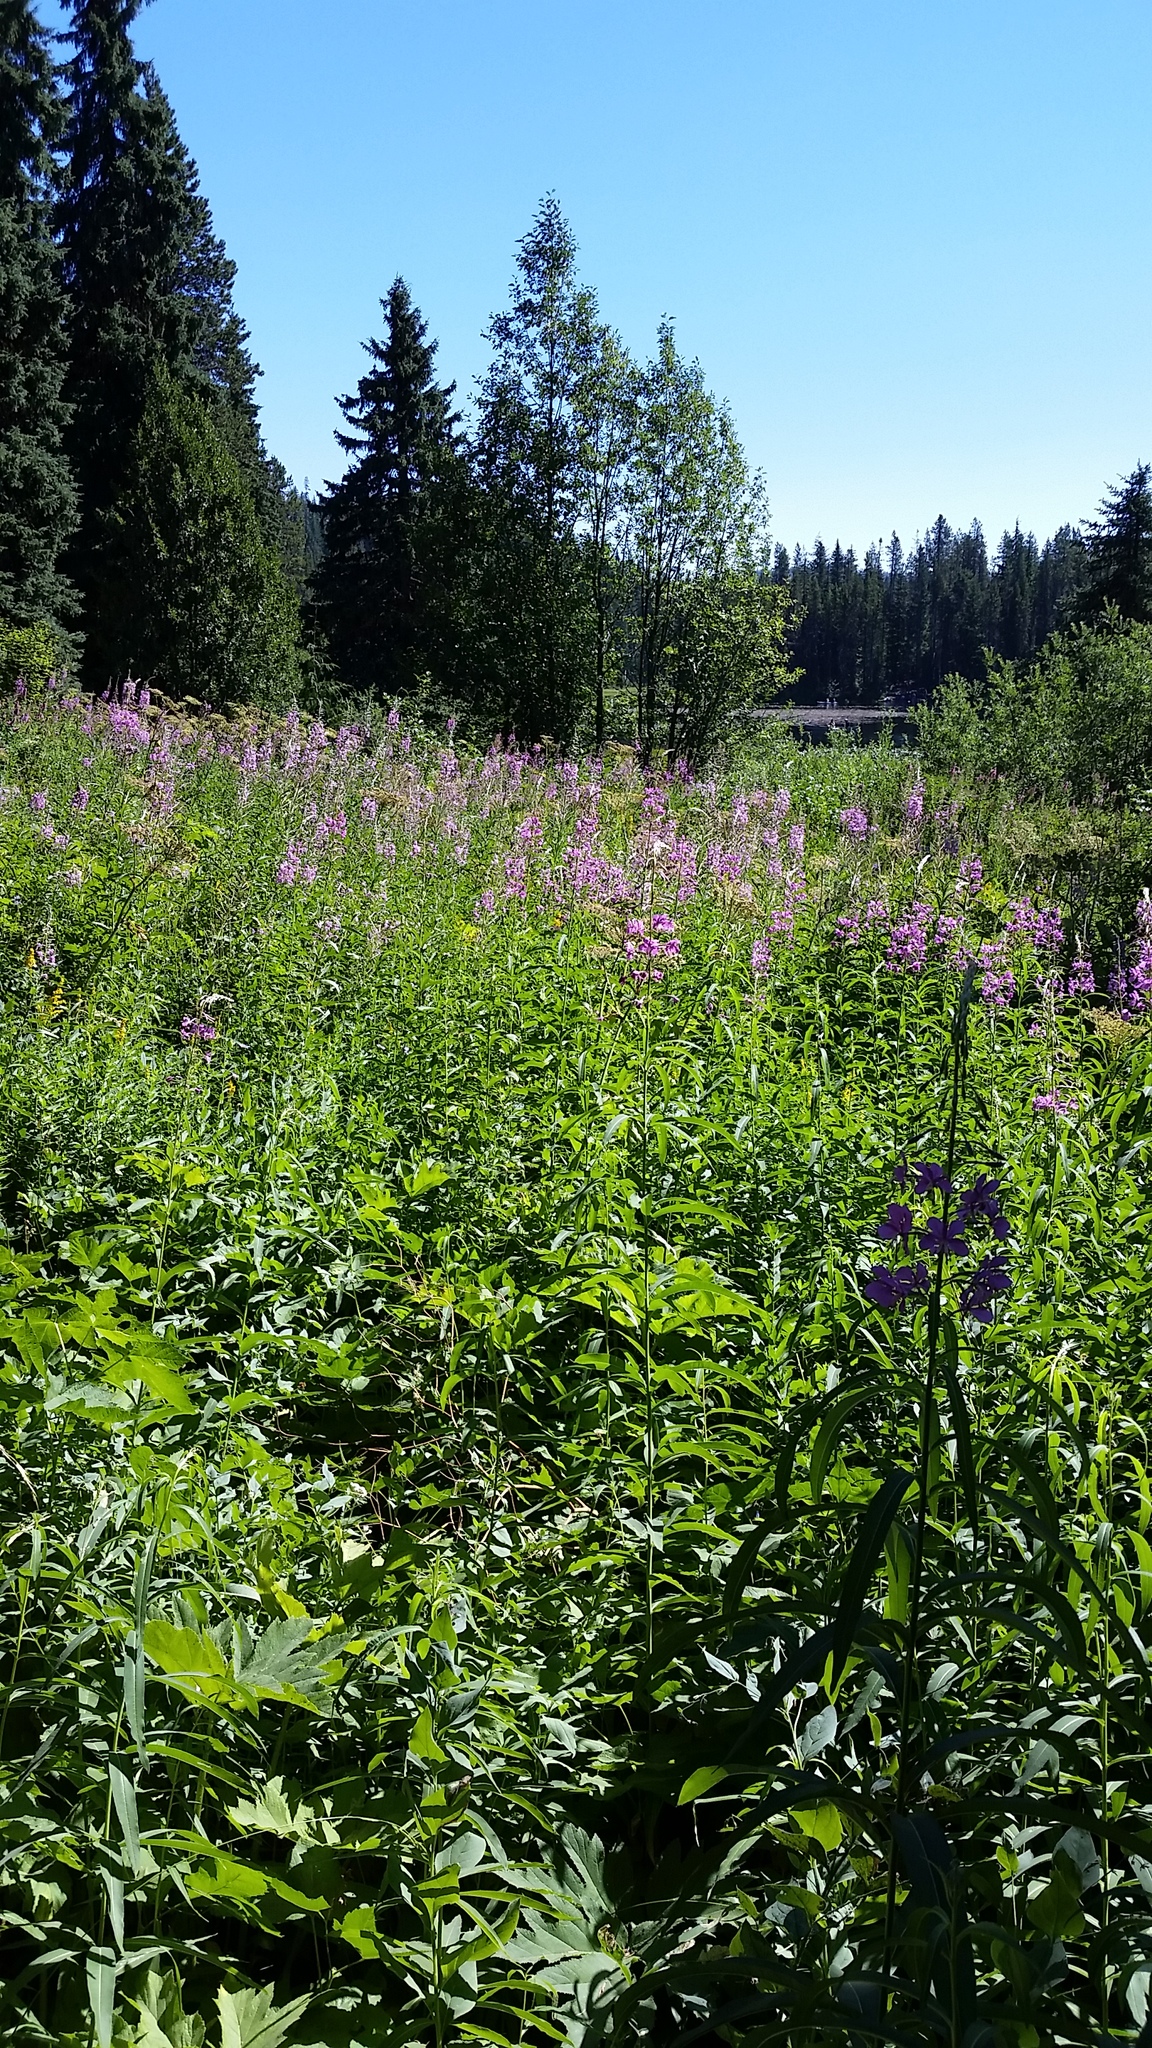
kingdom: Plantae
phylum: Tracheophyta
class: Magnoliopsida
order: Myrtales
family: Onagraceae
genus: Chamaenerion
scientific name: Chamaenerion angustifolium
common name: Fireweed
